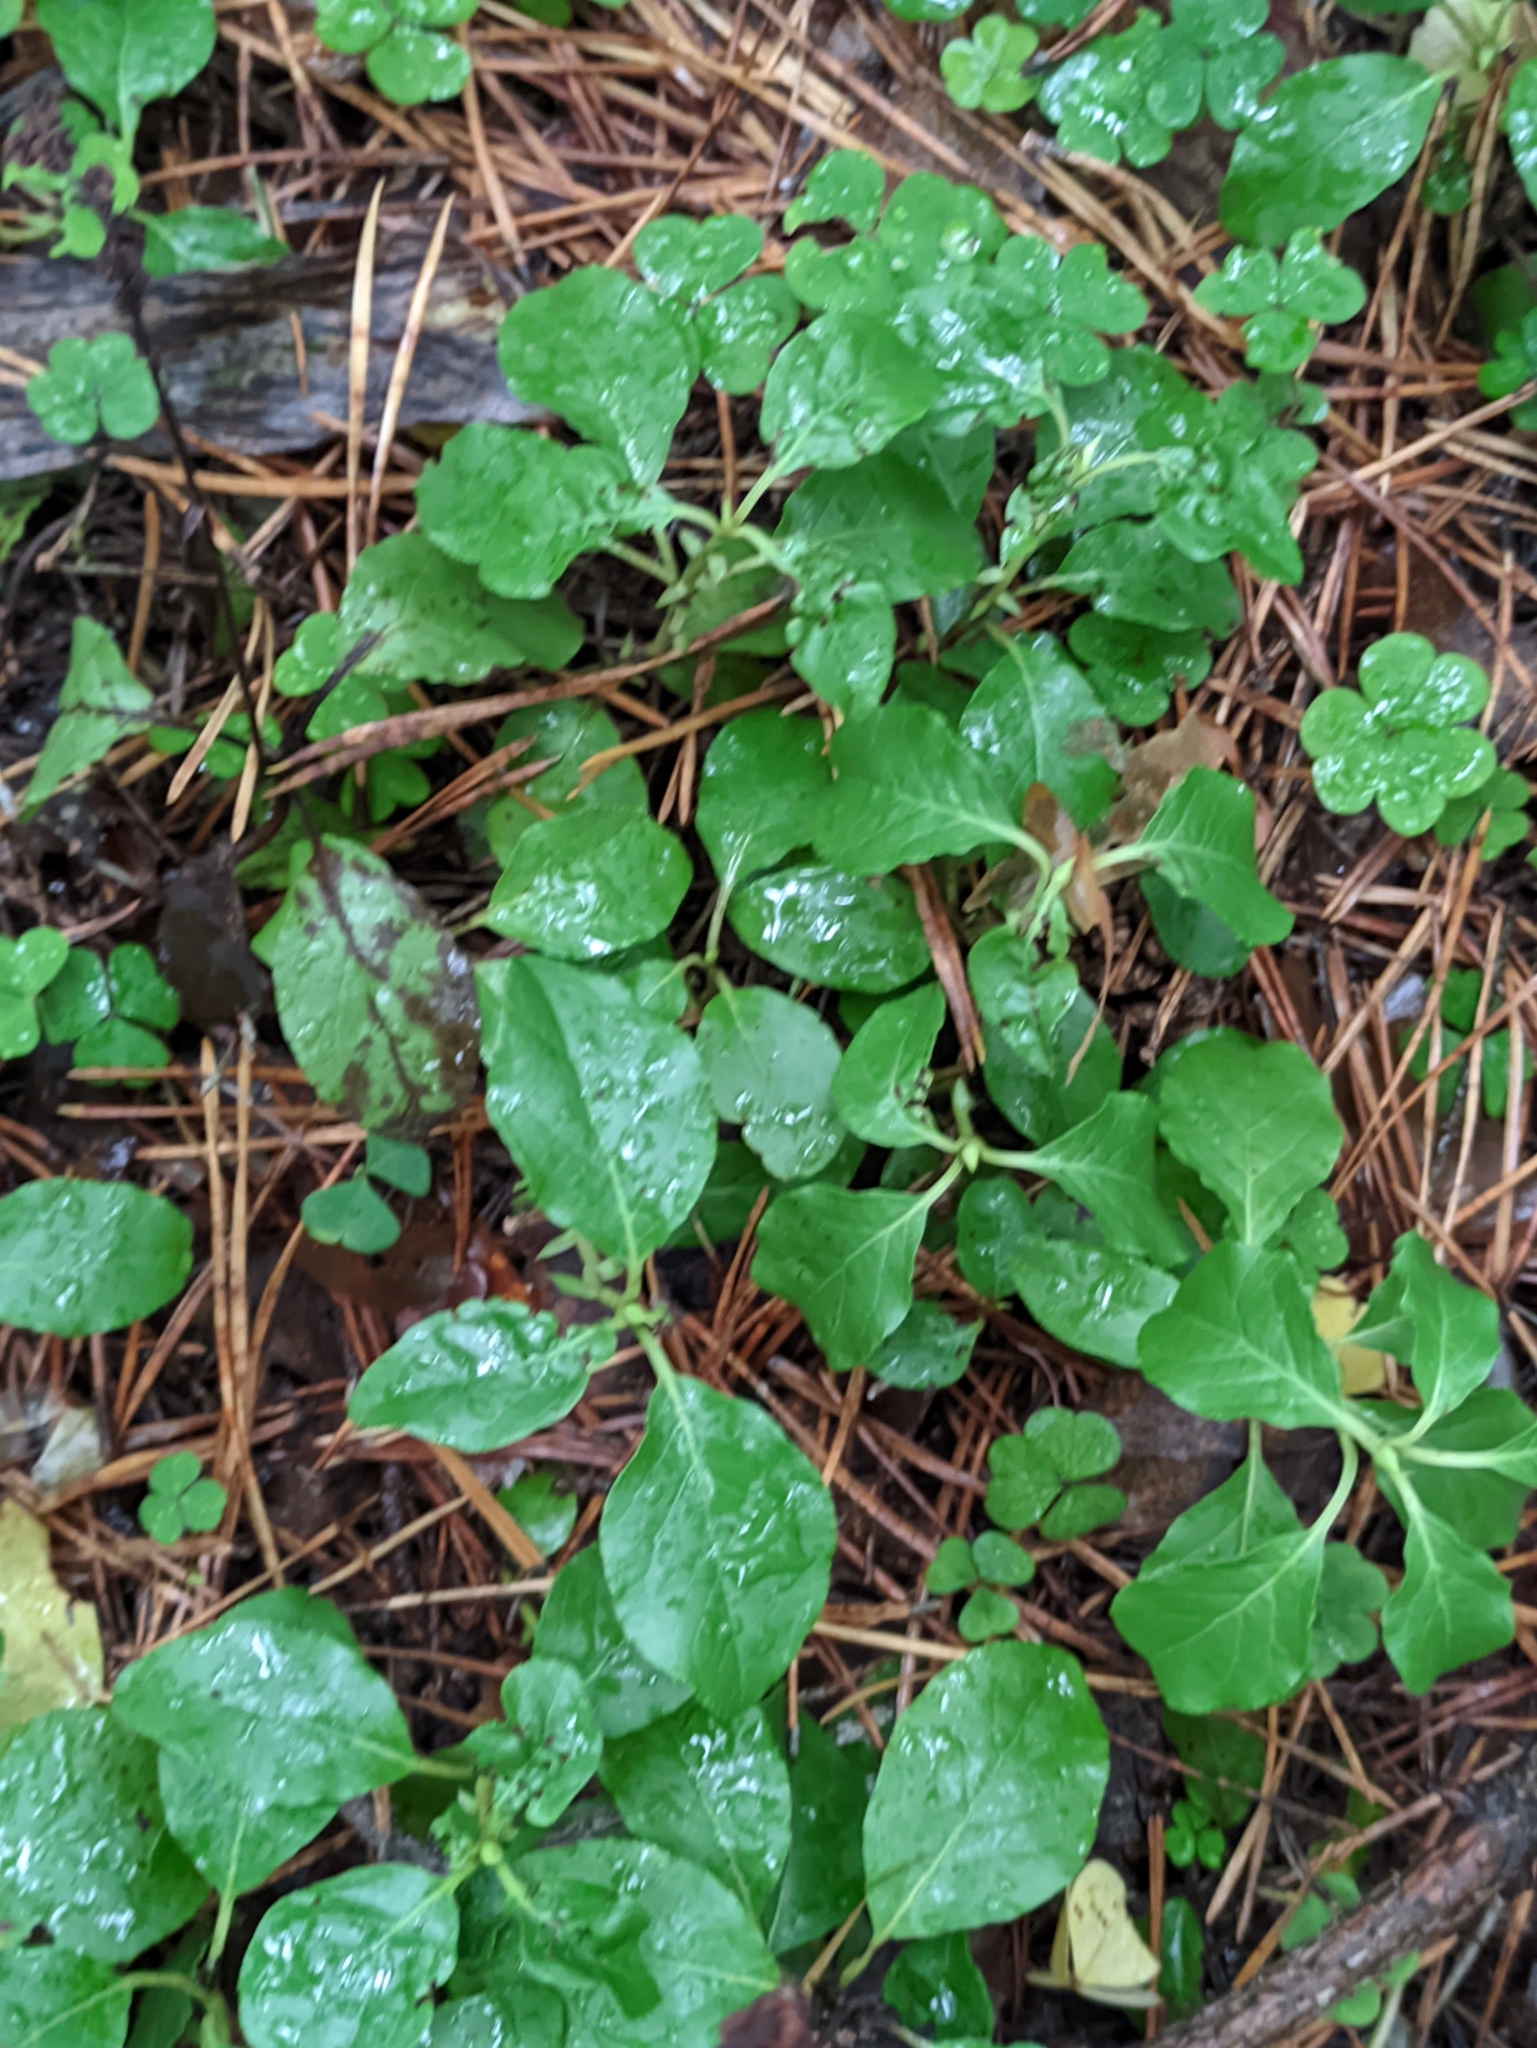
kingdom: Plantae
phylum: Tracheophyta
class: Magnoliopsida
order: Ericales
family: Ericaceae
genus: Orthilia
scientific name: Orthilia secunda
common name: One-sided orthilia
